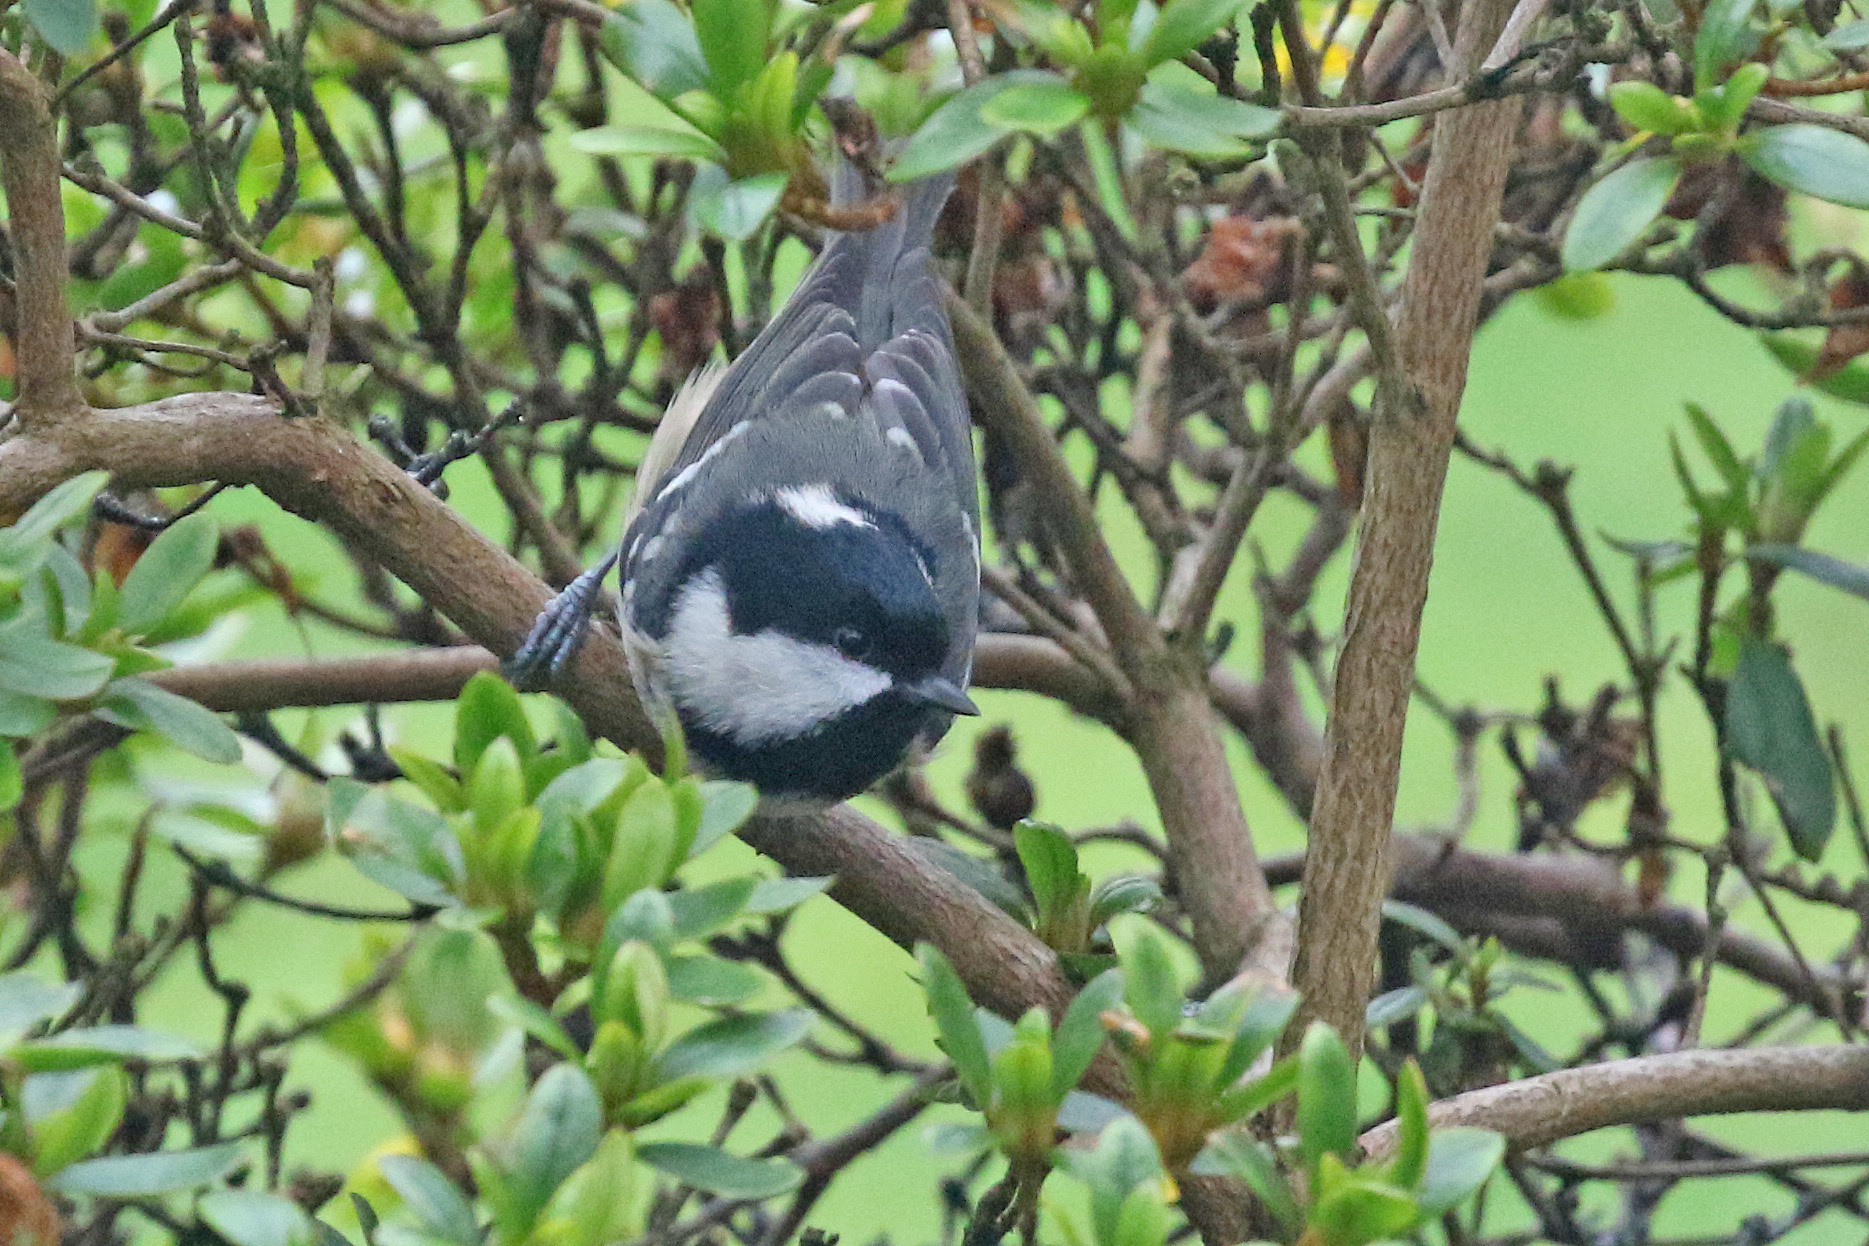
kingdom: Animalia
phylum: Chordata
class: Aves
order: Passeriformes
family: Paridae
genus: Periparus
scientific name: Periparus ater
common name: Coal tit
